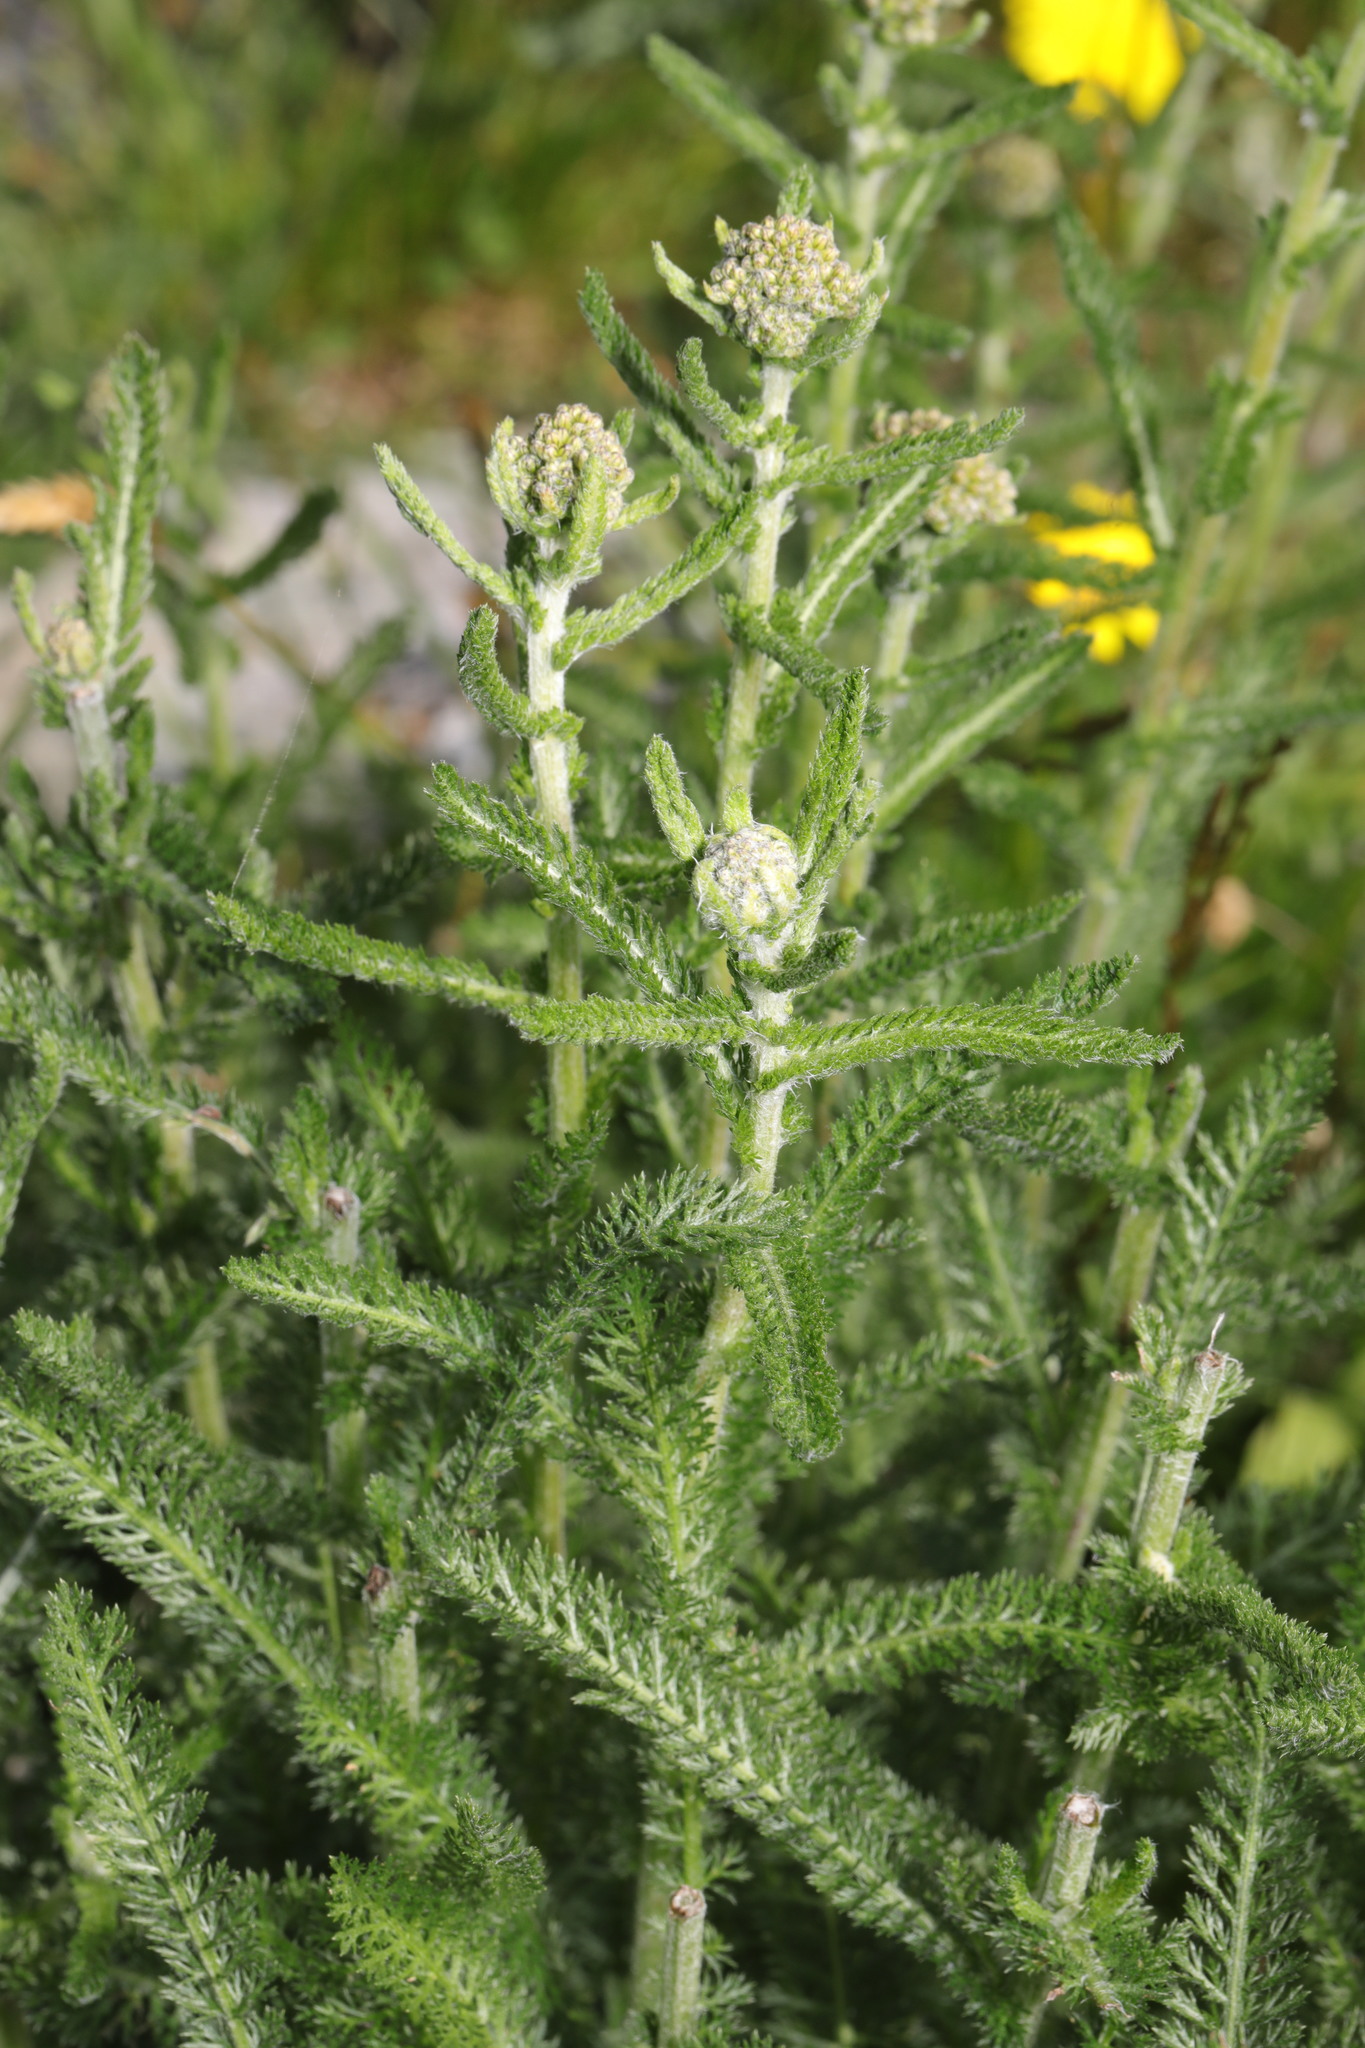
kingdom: Plantae
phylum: Tracheophyta
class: Magnoliopsida
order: Asterales
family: Asteraceae
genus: Achillea
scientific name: Achillea millefolium
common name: Yarrow
